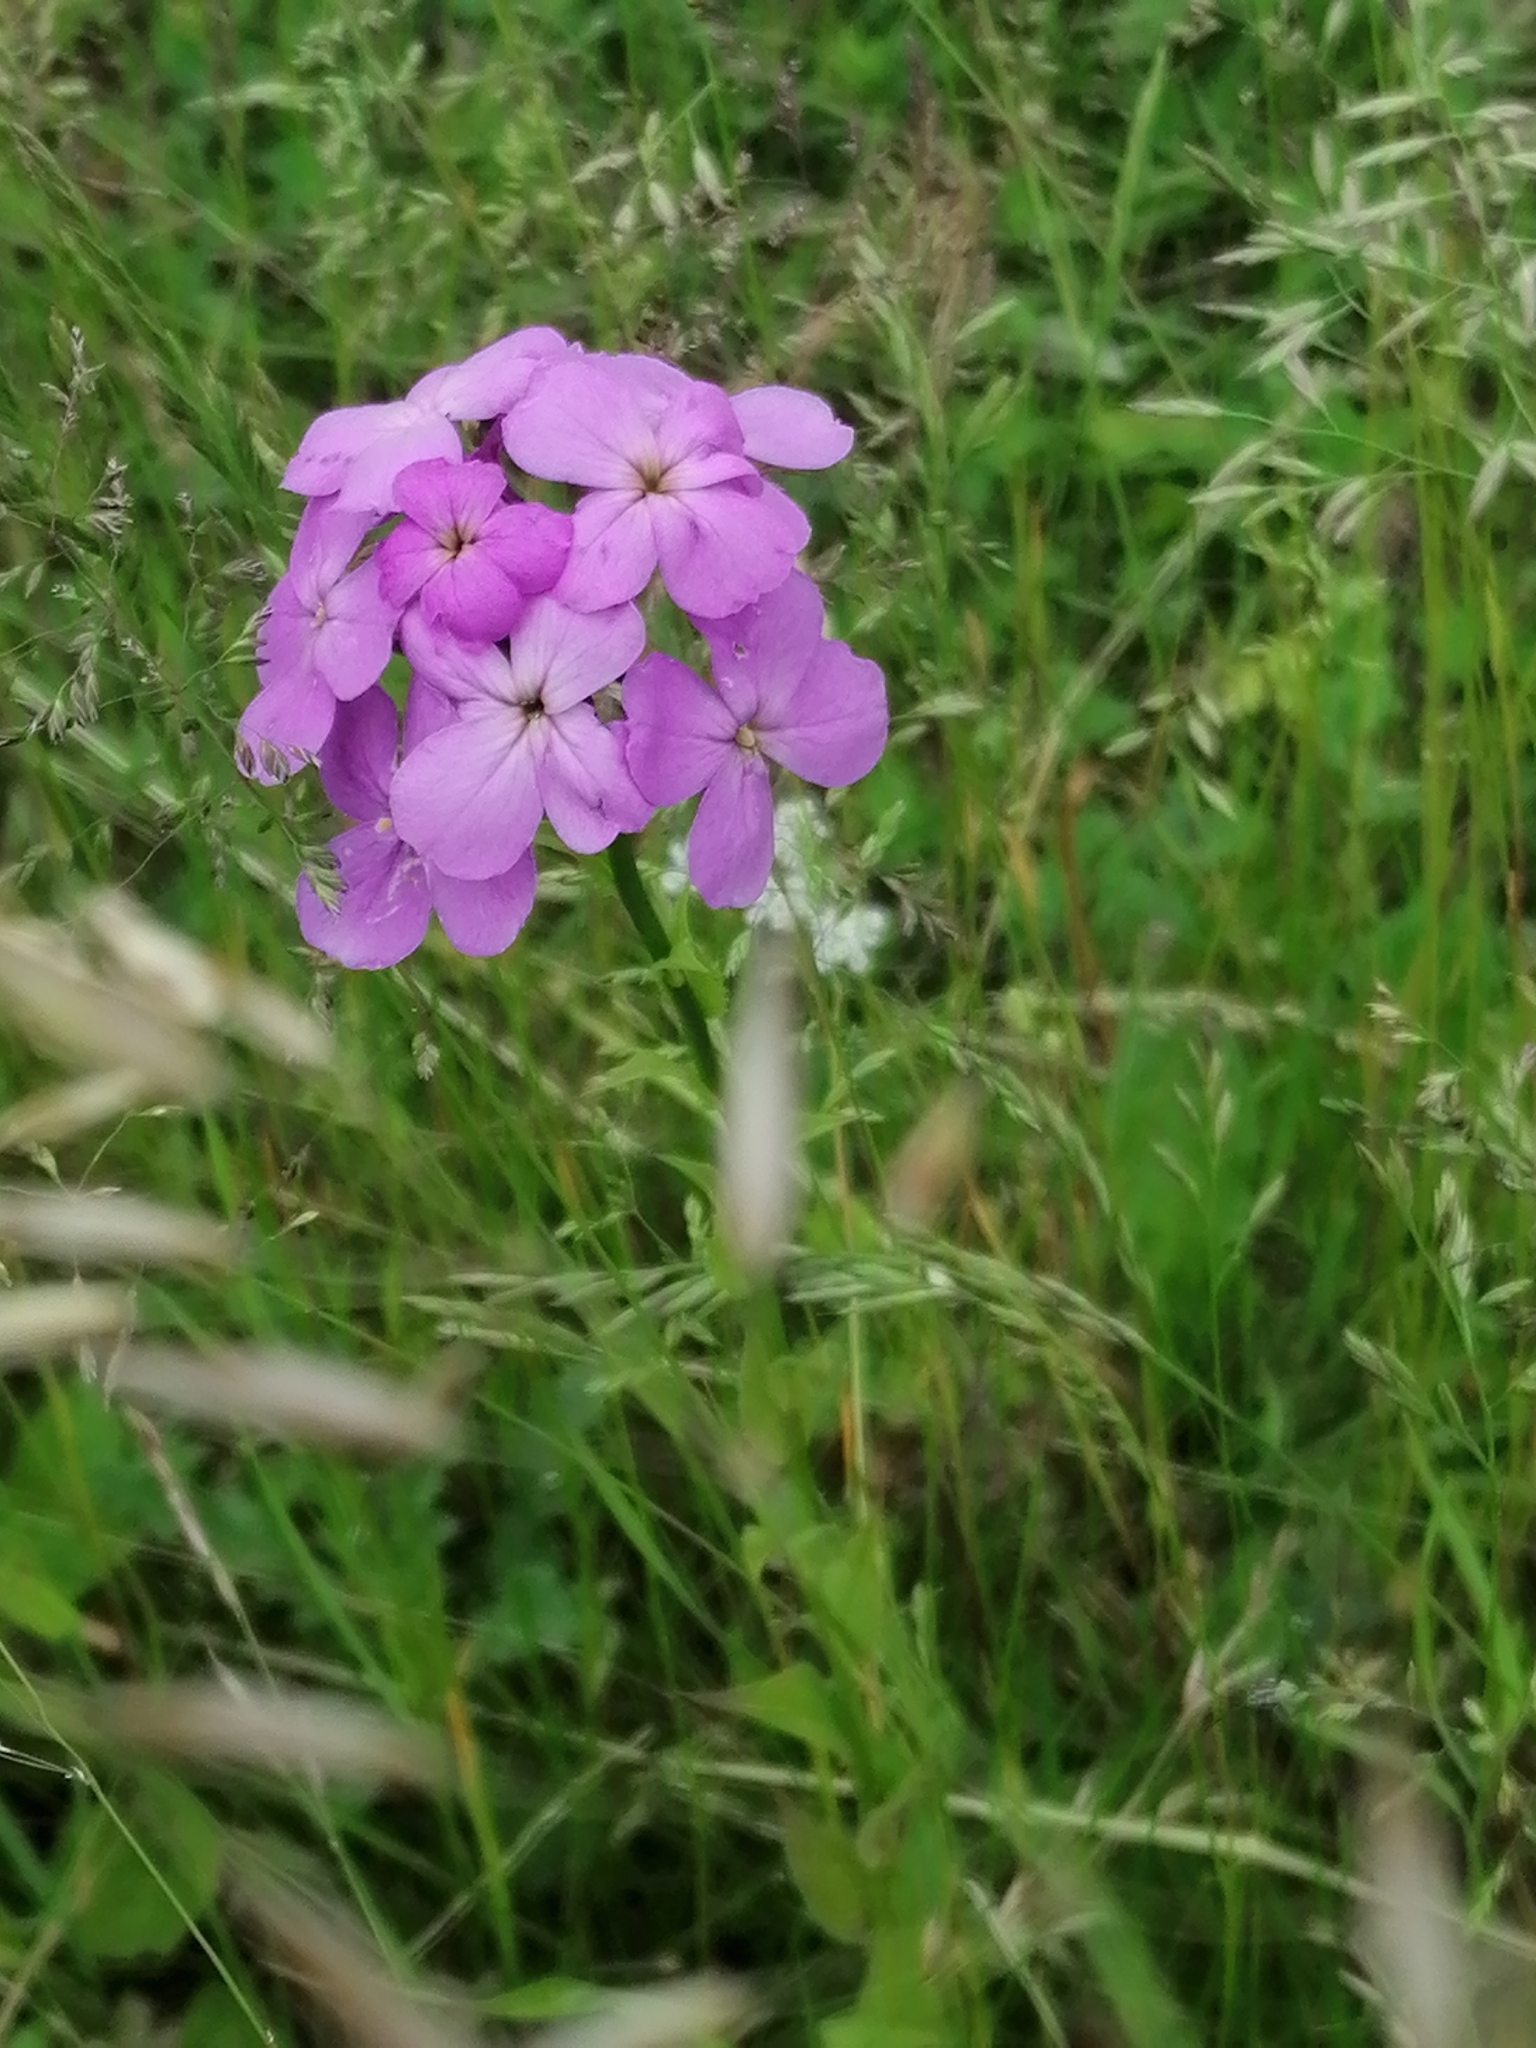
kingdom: Plantae
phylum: Tracheophyta
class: Magnoliopsida
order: Brassicales
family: Brassicaceae
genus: Hesperis
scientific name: Hesperis matronalis
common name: Dame's-violet
